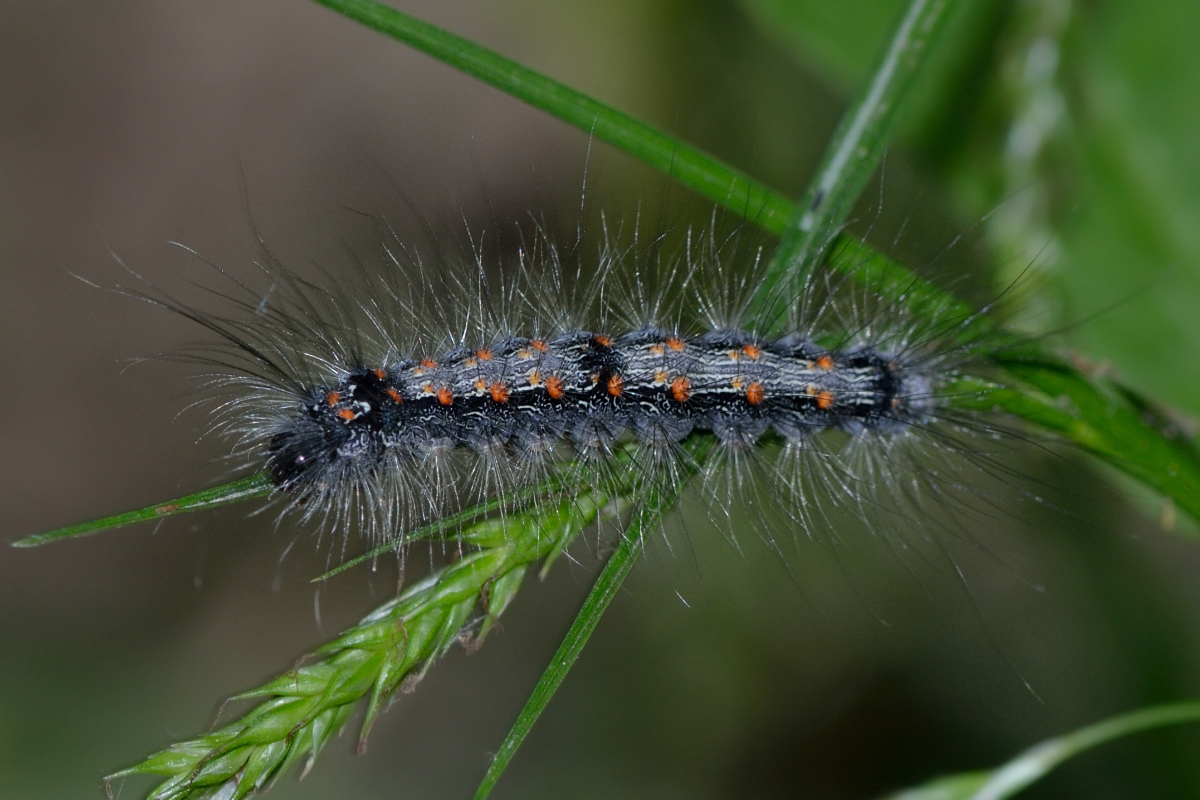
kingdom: Animalia
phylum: Arthropoda
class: Insecta
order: Lepidoptera
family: Erebidae
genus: Lithosia
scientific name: Lithosia quadra
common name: Four-spotted footman
